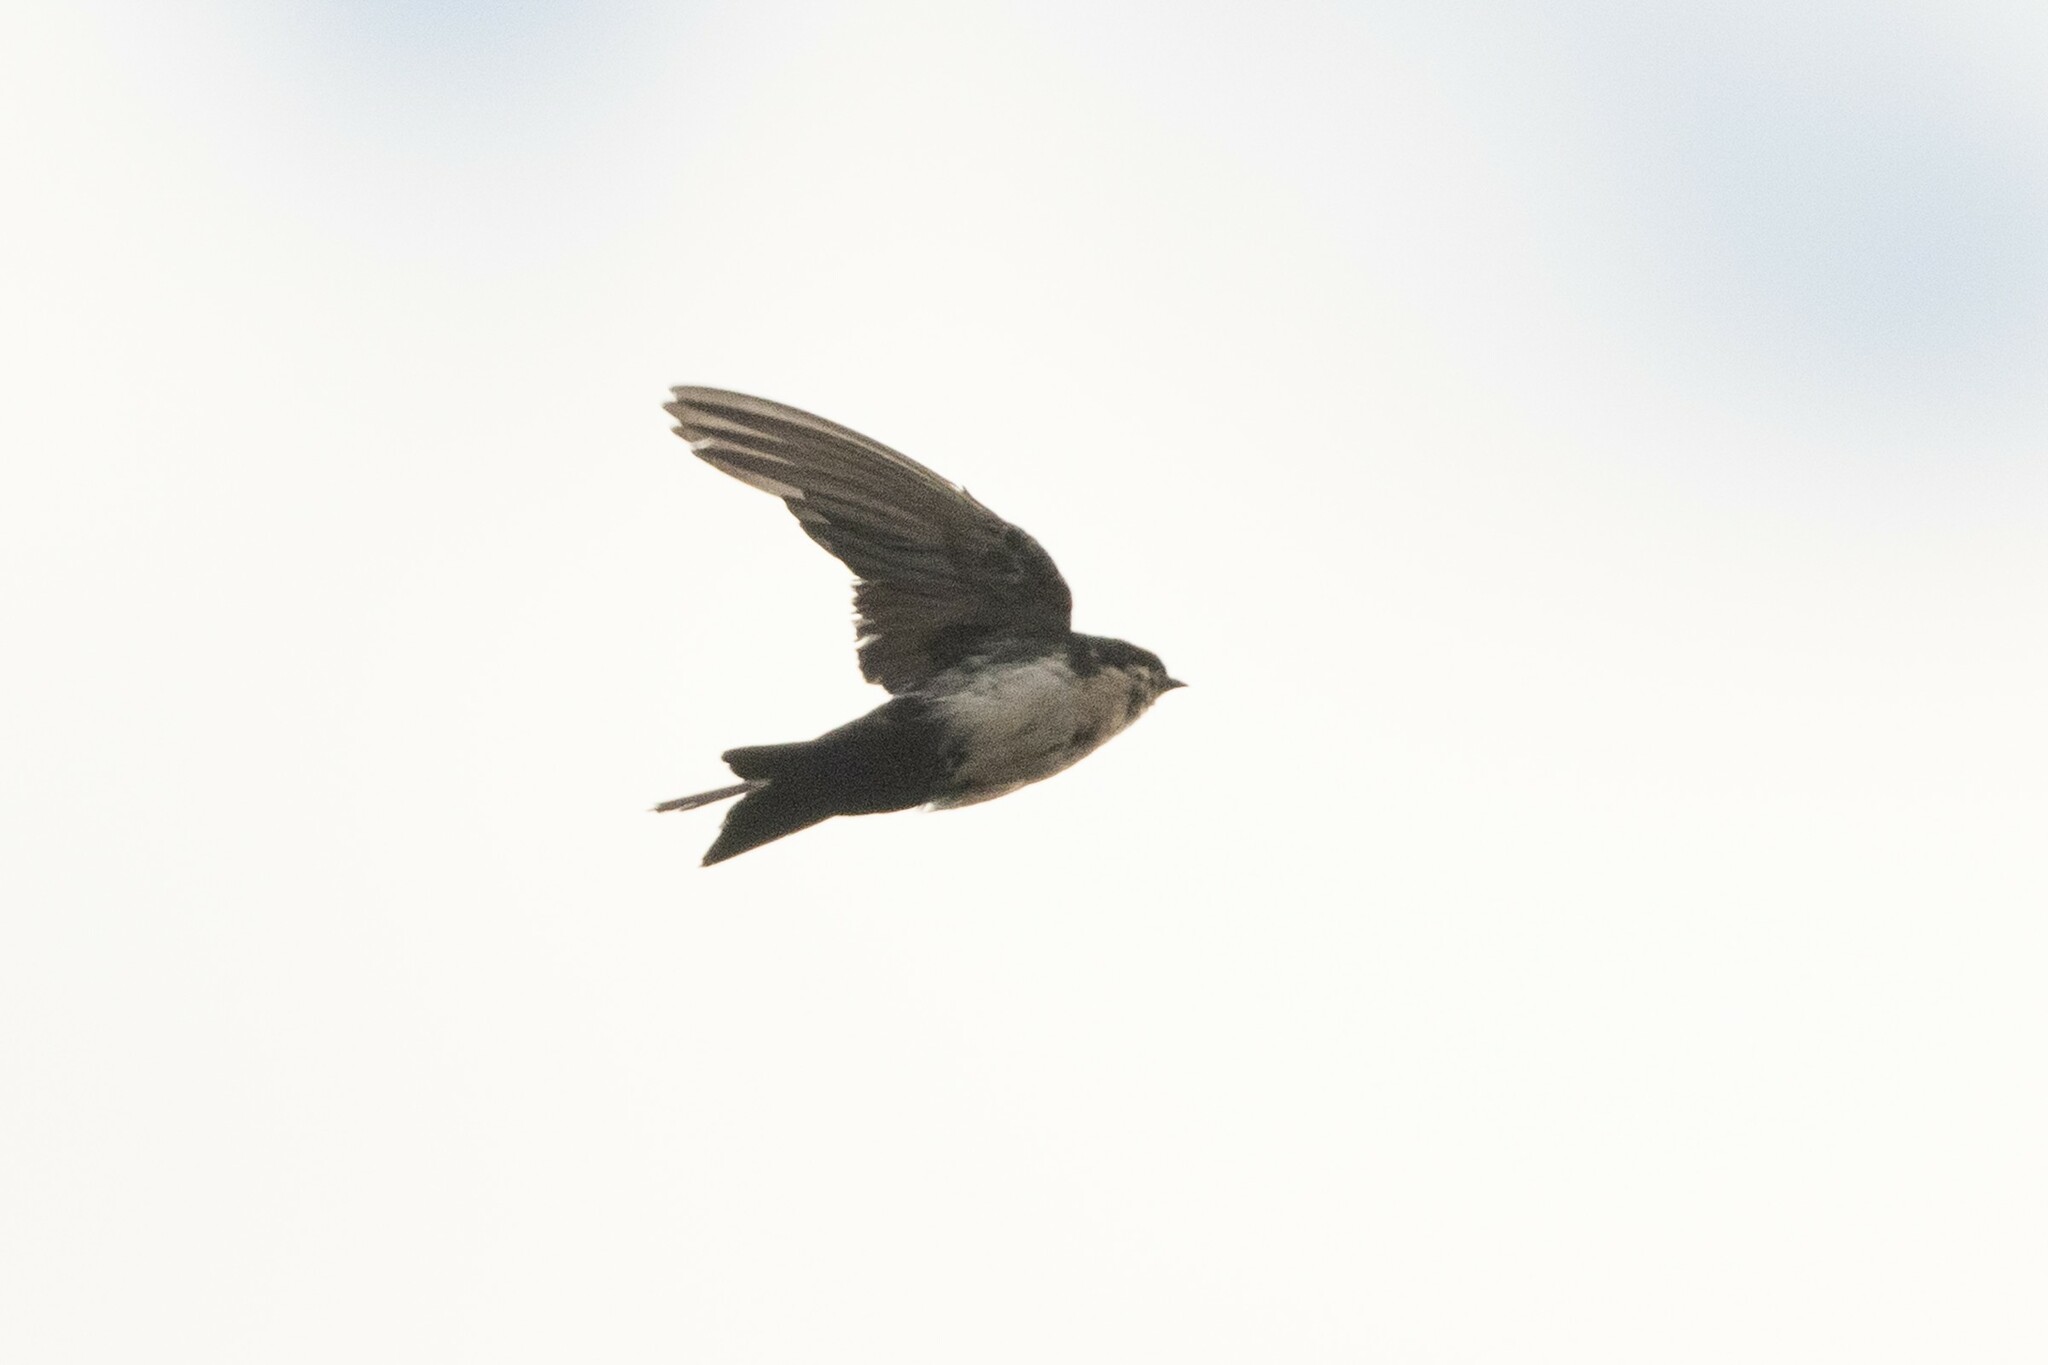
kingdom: Animalia
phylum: Chordata
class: Aves
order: Passeriformes
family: Hirundinidae
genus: Notiochelidon
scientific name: Notiochelidon cyanoleuca
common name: Blue-and-white swallow
